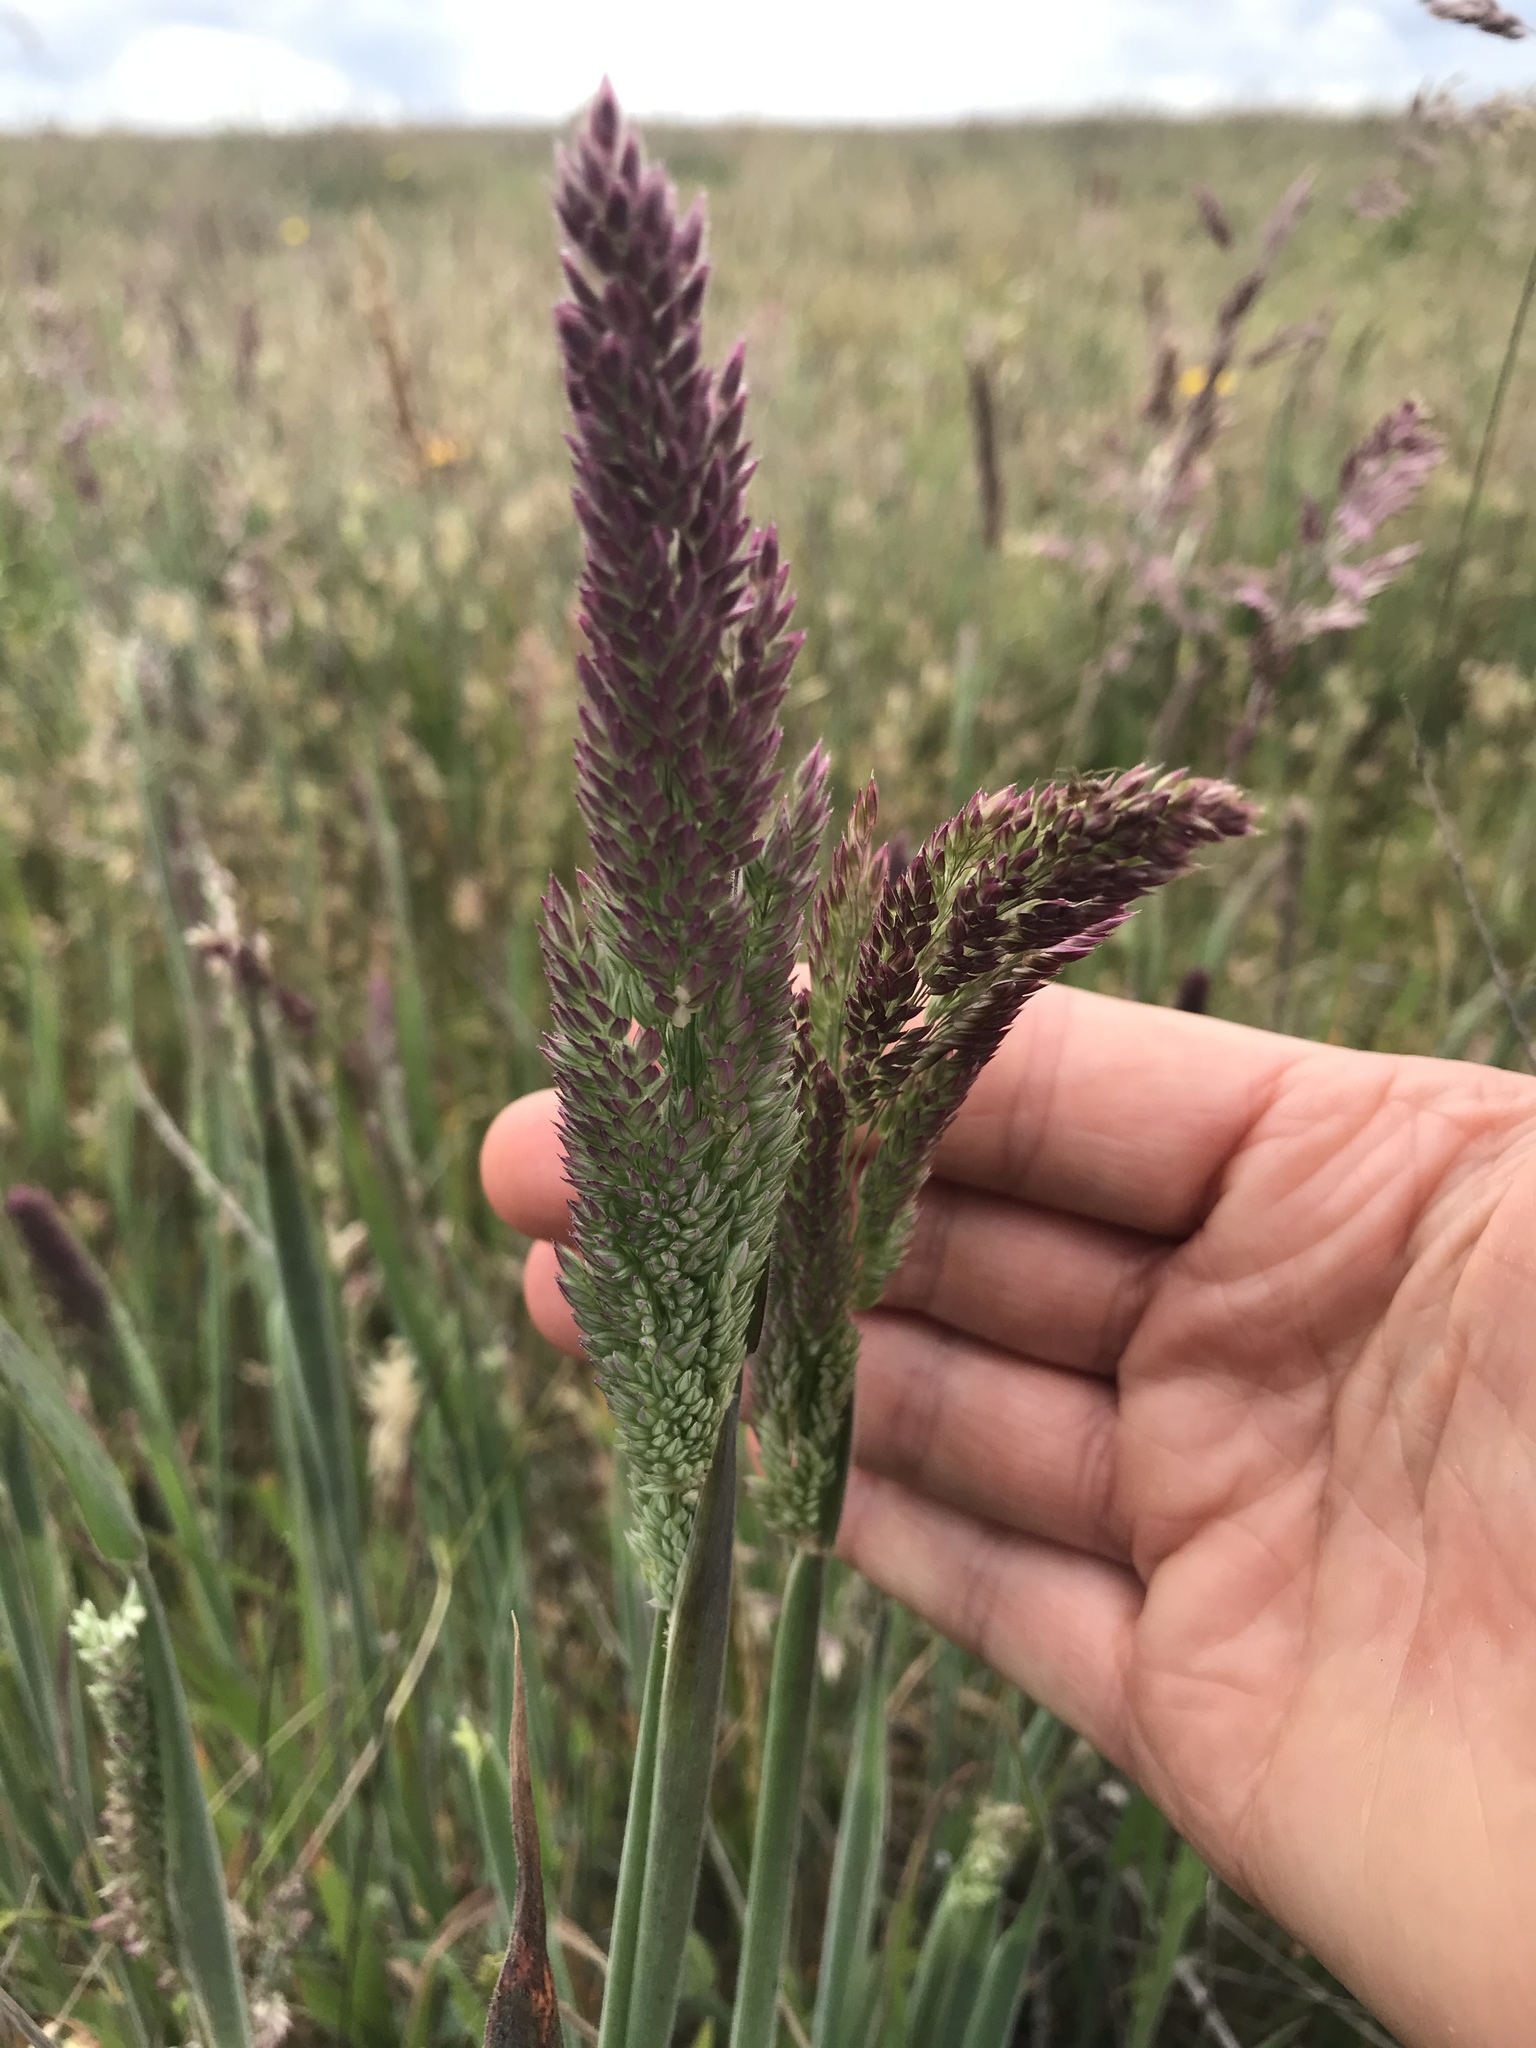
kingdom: Plantae
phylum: Tracheophyta
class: Liliopsida
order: Poales
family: Poaceae
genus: Holcus
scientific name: Holcus lanatus
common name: Yorkshire-fog
